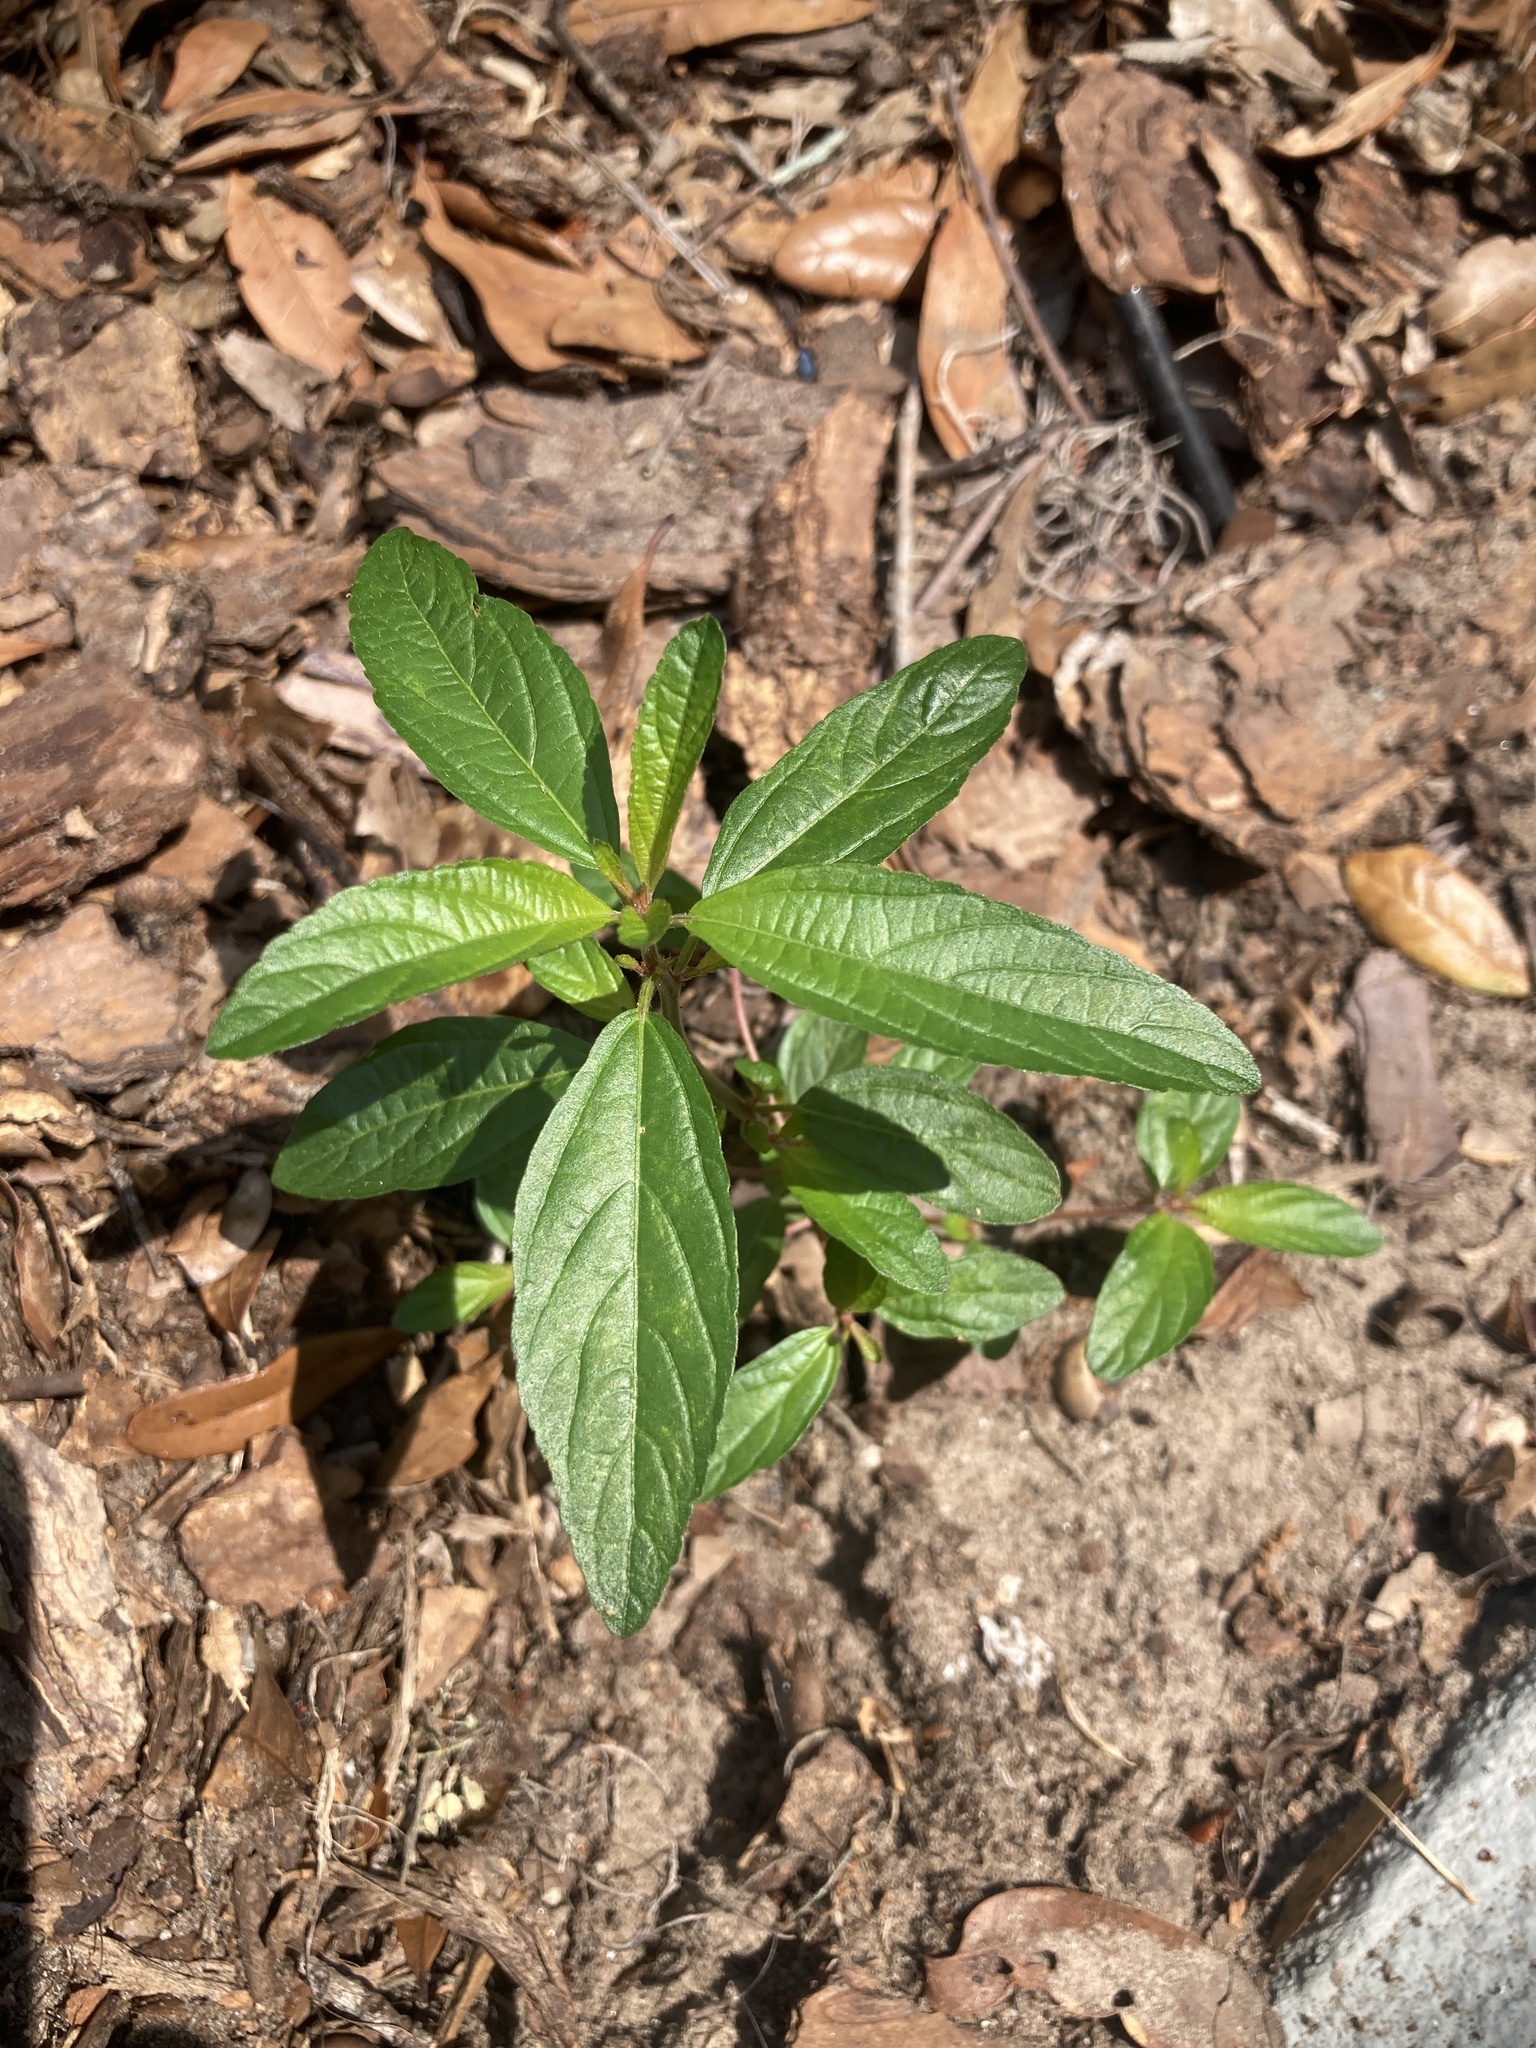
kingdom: Plantae
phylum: Tracheophyta
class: Magnoliopsida
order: Malpighiales
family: Euphorbiaceae
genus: Acalypha
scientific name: Acalypha gracilens
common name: Slender three-seeded mercury
